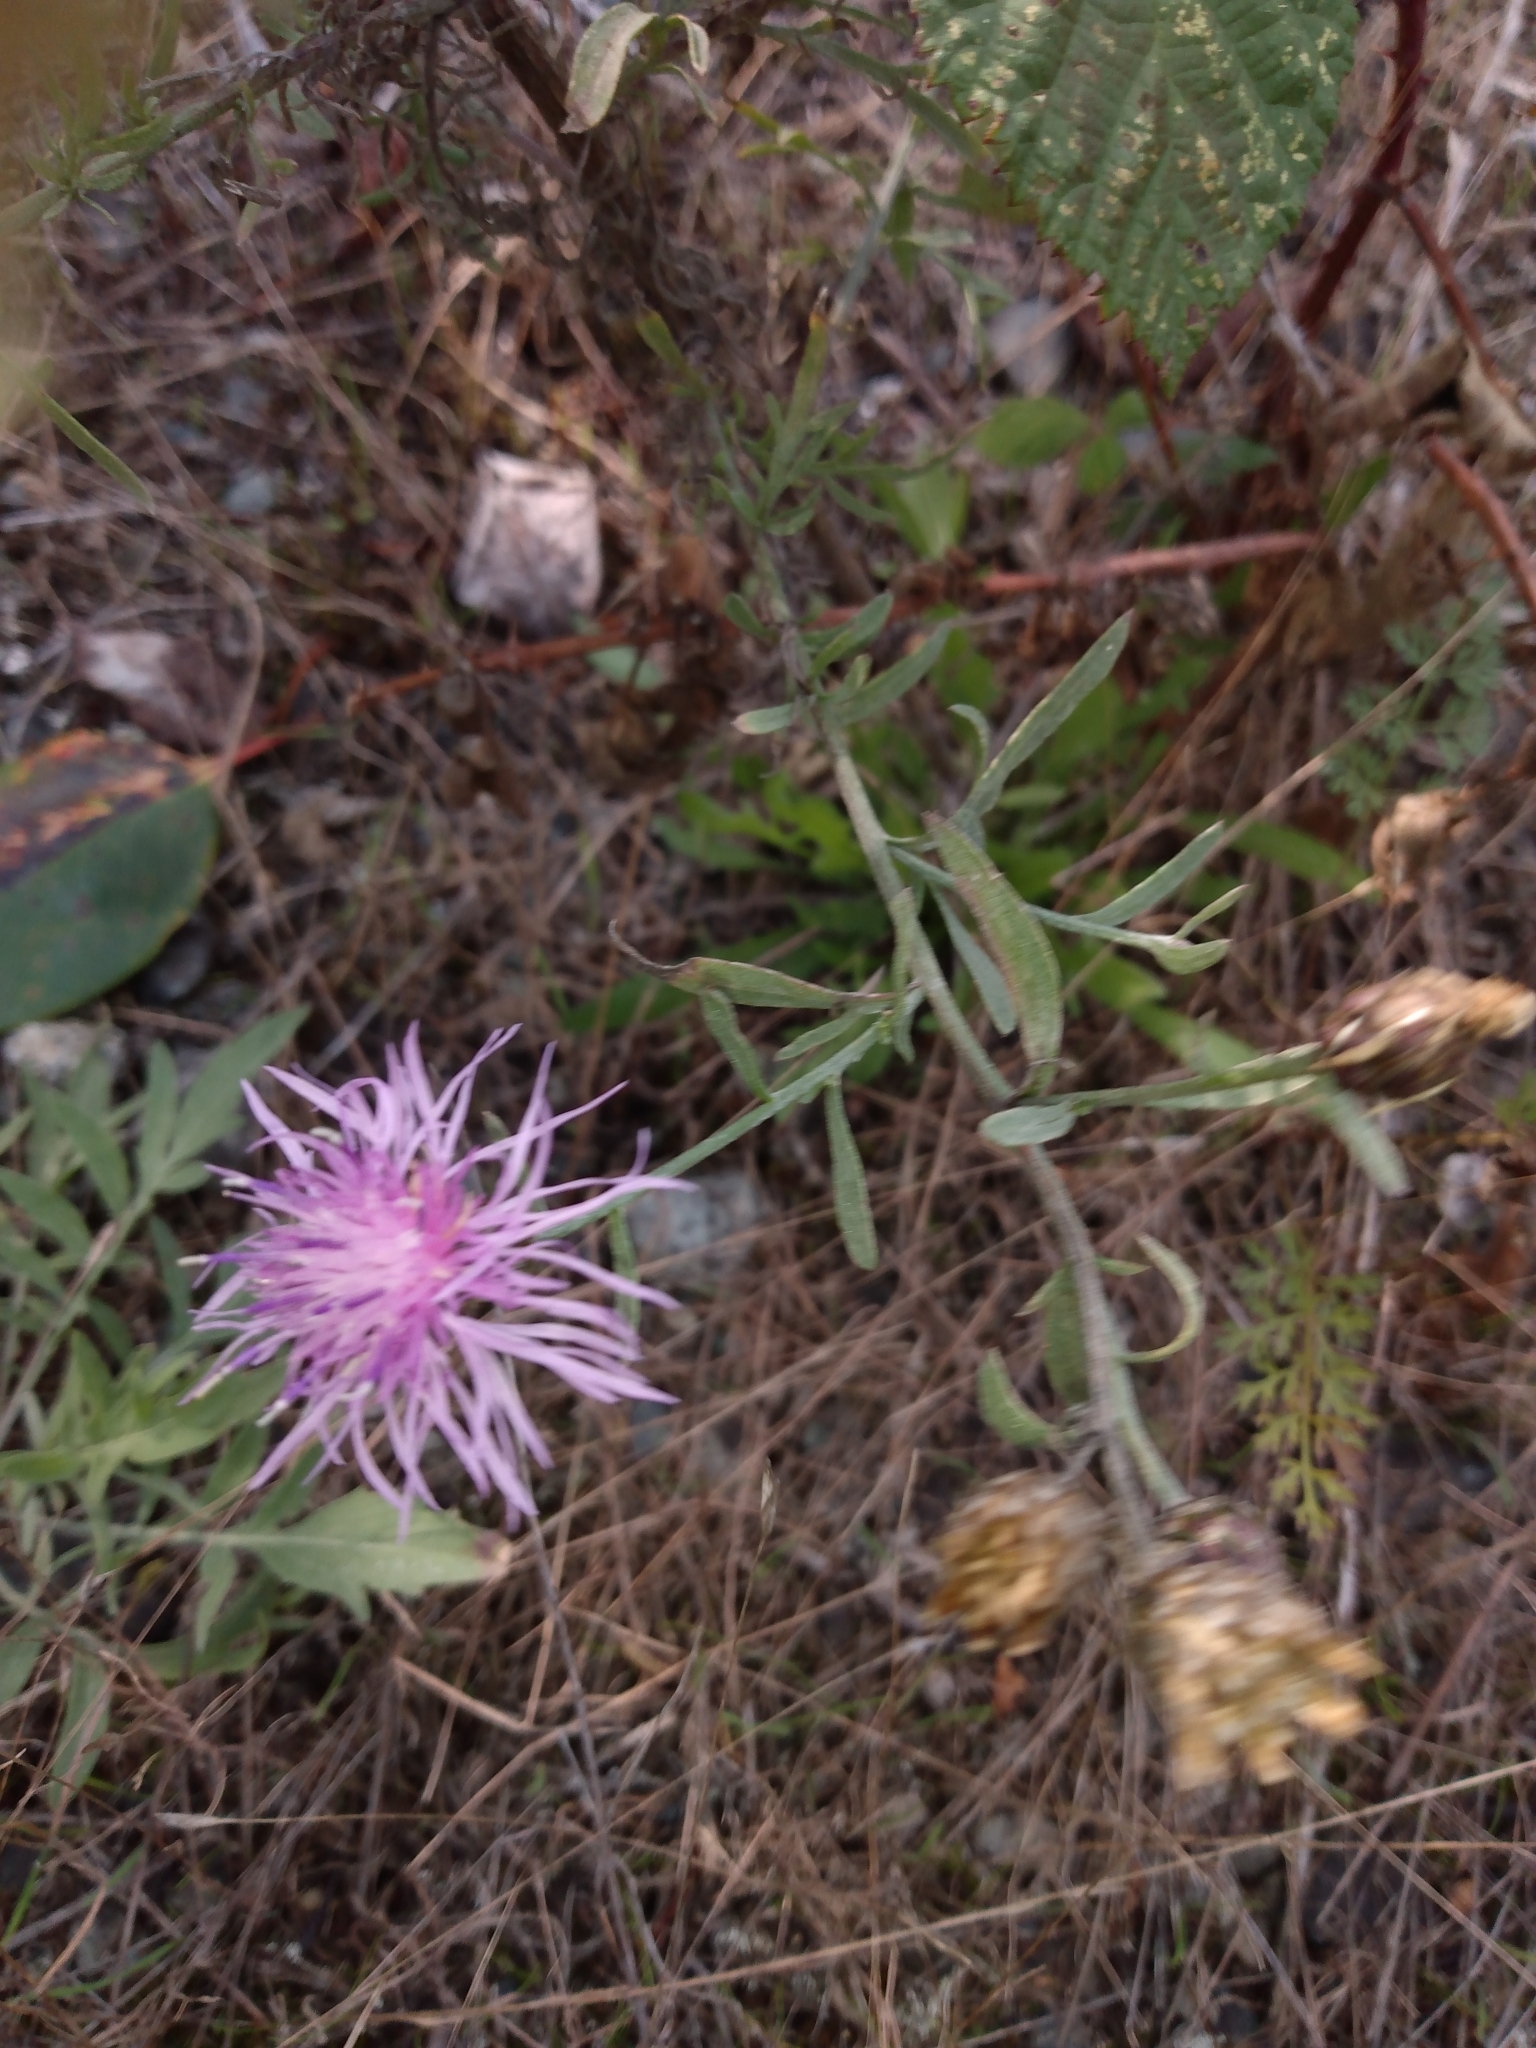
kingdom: Plantae
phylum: Tracheophyta
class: Magnoliopsida
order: Asterales
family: Asteraceae
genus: Centaurea
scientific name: Centaurea stoebe
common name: Spotted knapweed
